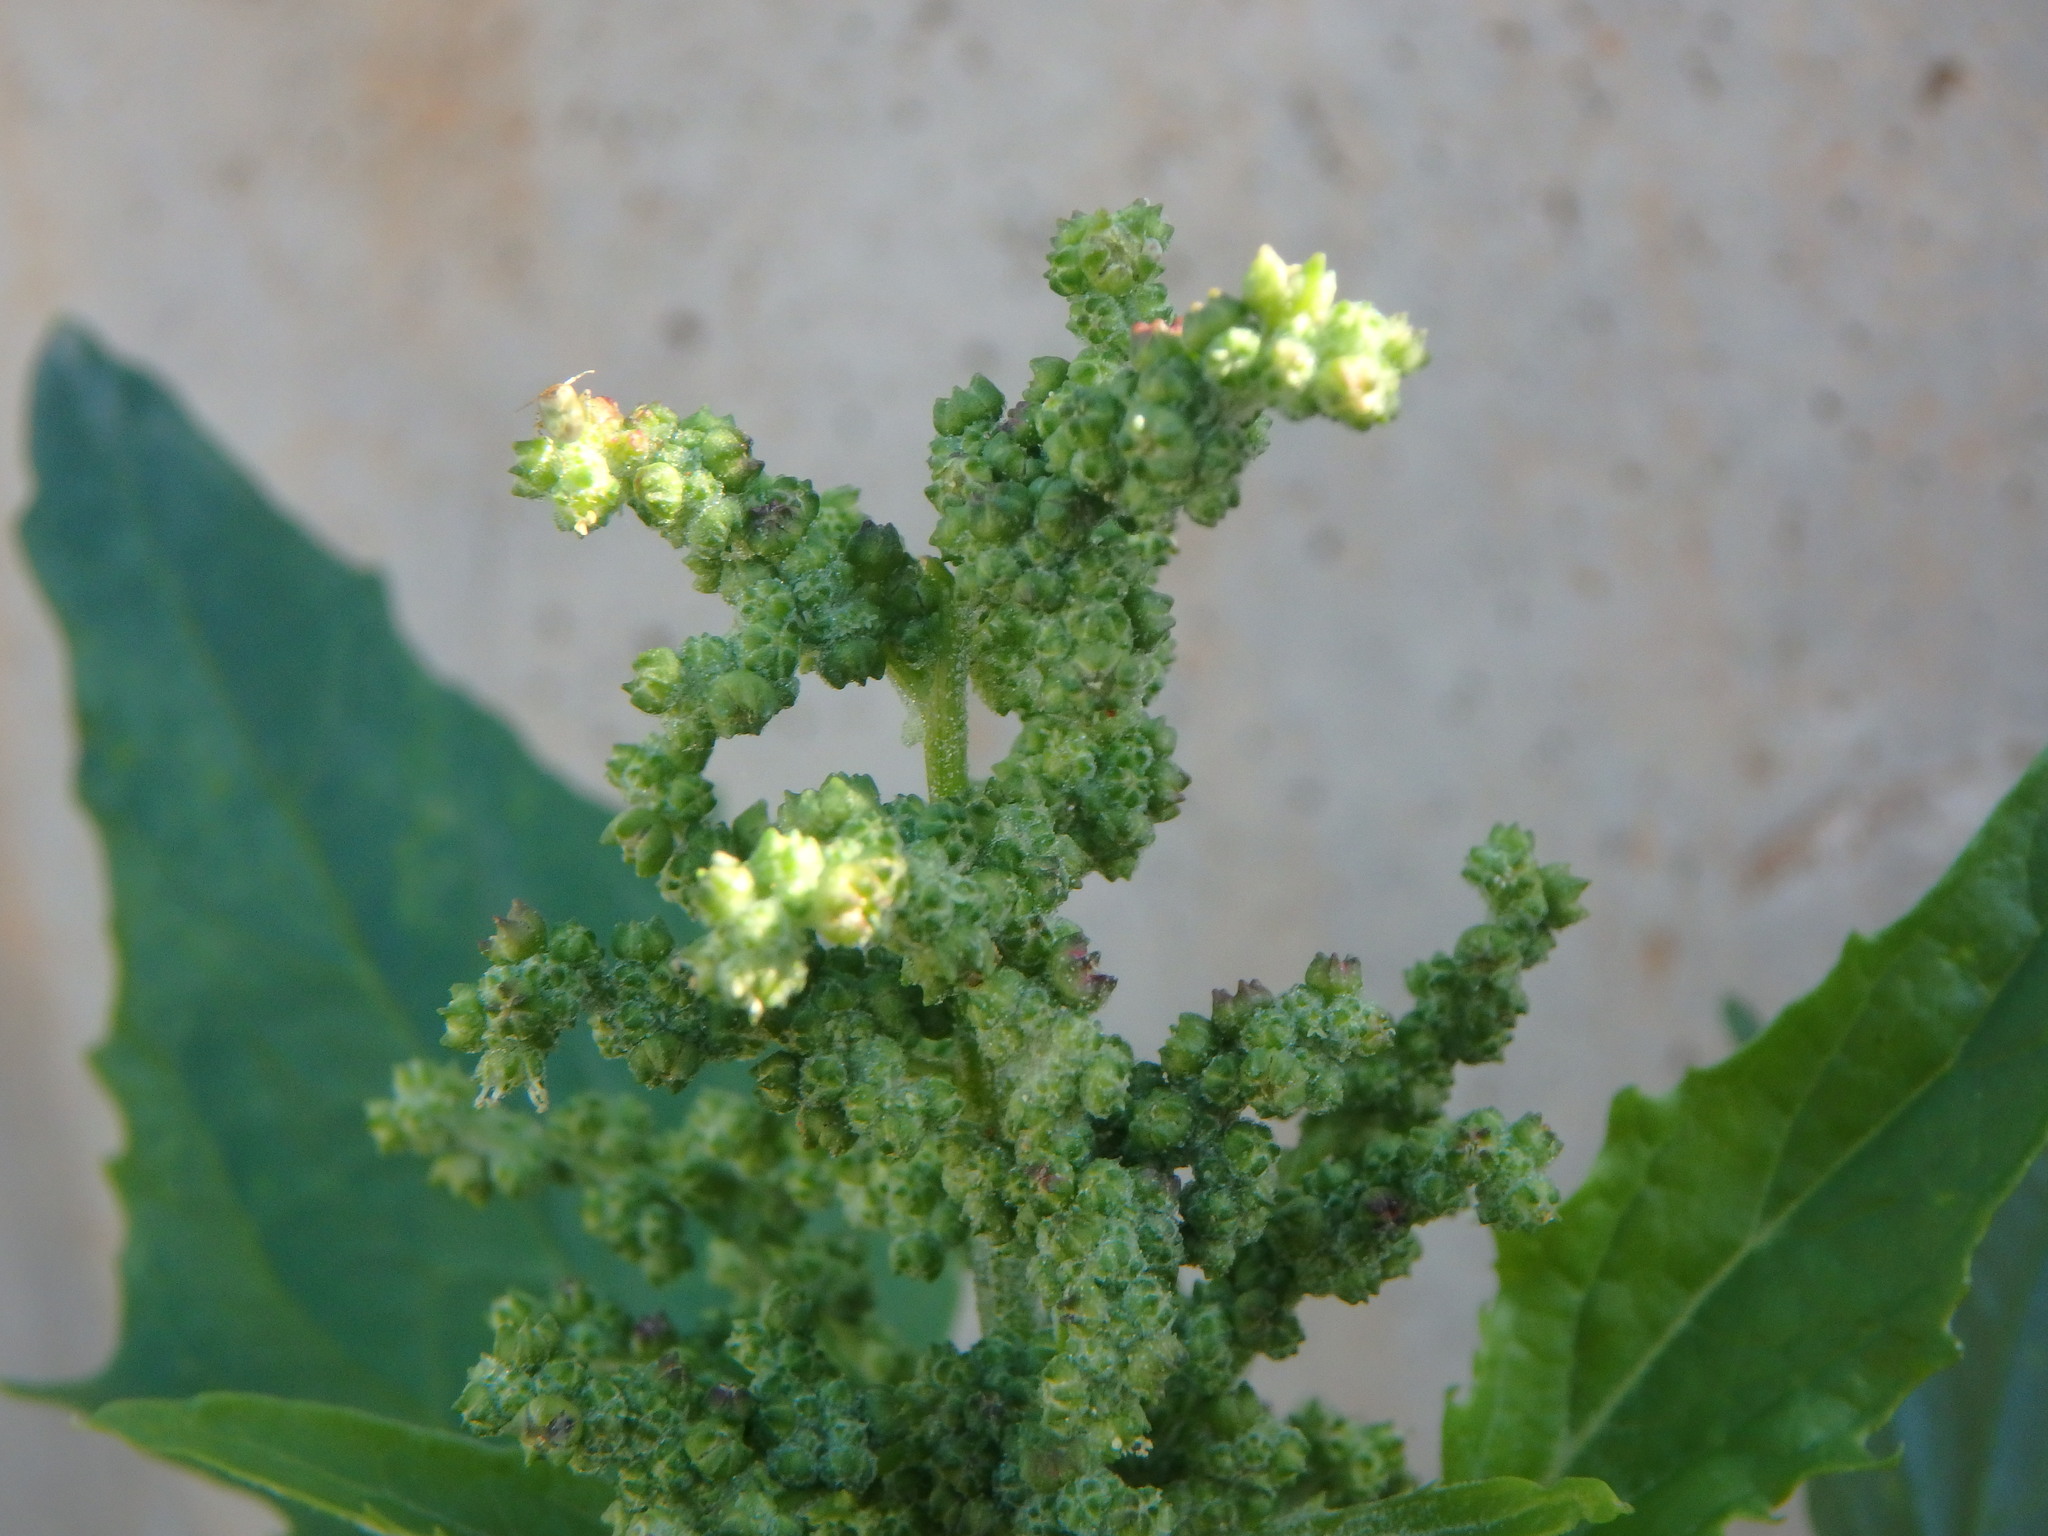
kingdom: Plantae
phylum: Tracheophyta
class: Magnoliopsida
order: Caryophyllales
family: Amaranthaceae
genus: Chenopodiastrum
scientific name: Chenopodiastrum murale
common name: Sowbane
